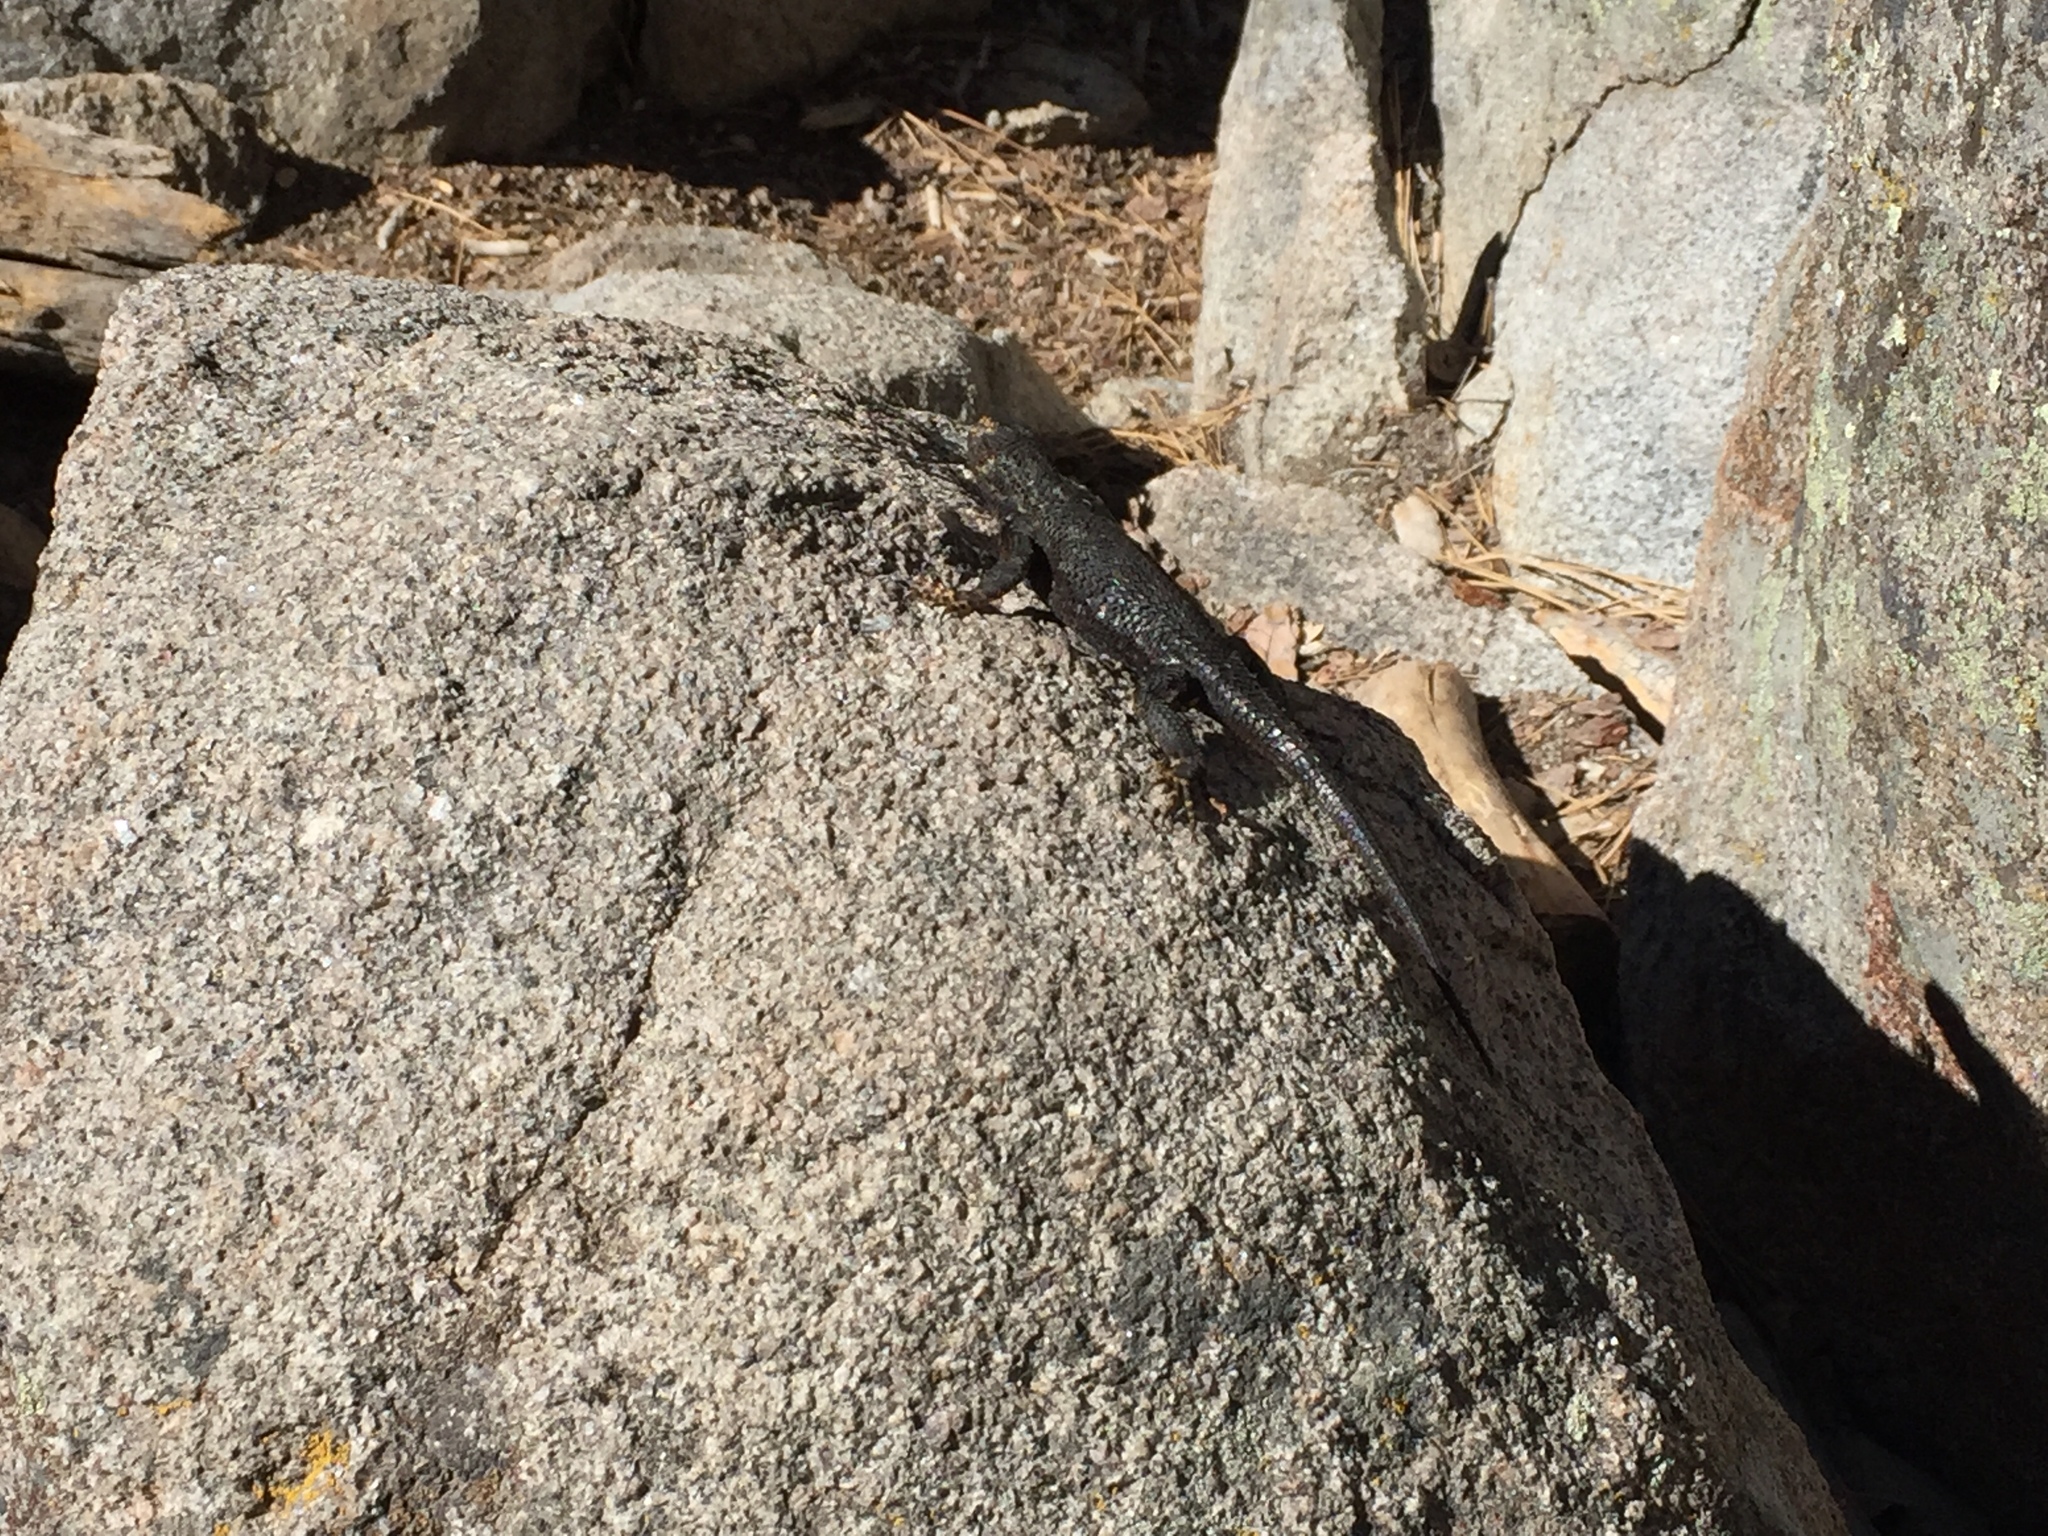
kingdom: Animalia
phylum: Chordata
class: Squamata
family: Phrynosomatidae
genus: Sceloporus
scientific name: Sceloporus occidentalis
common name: Western fence lizard
